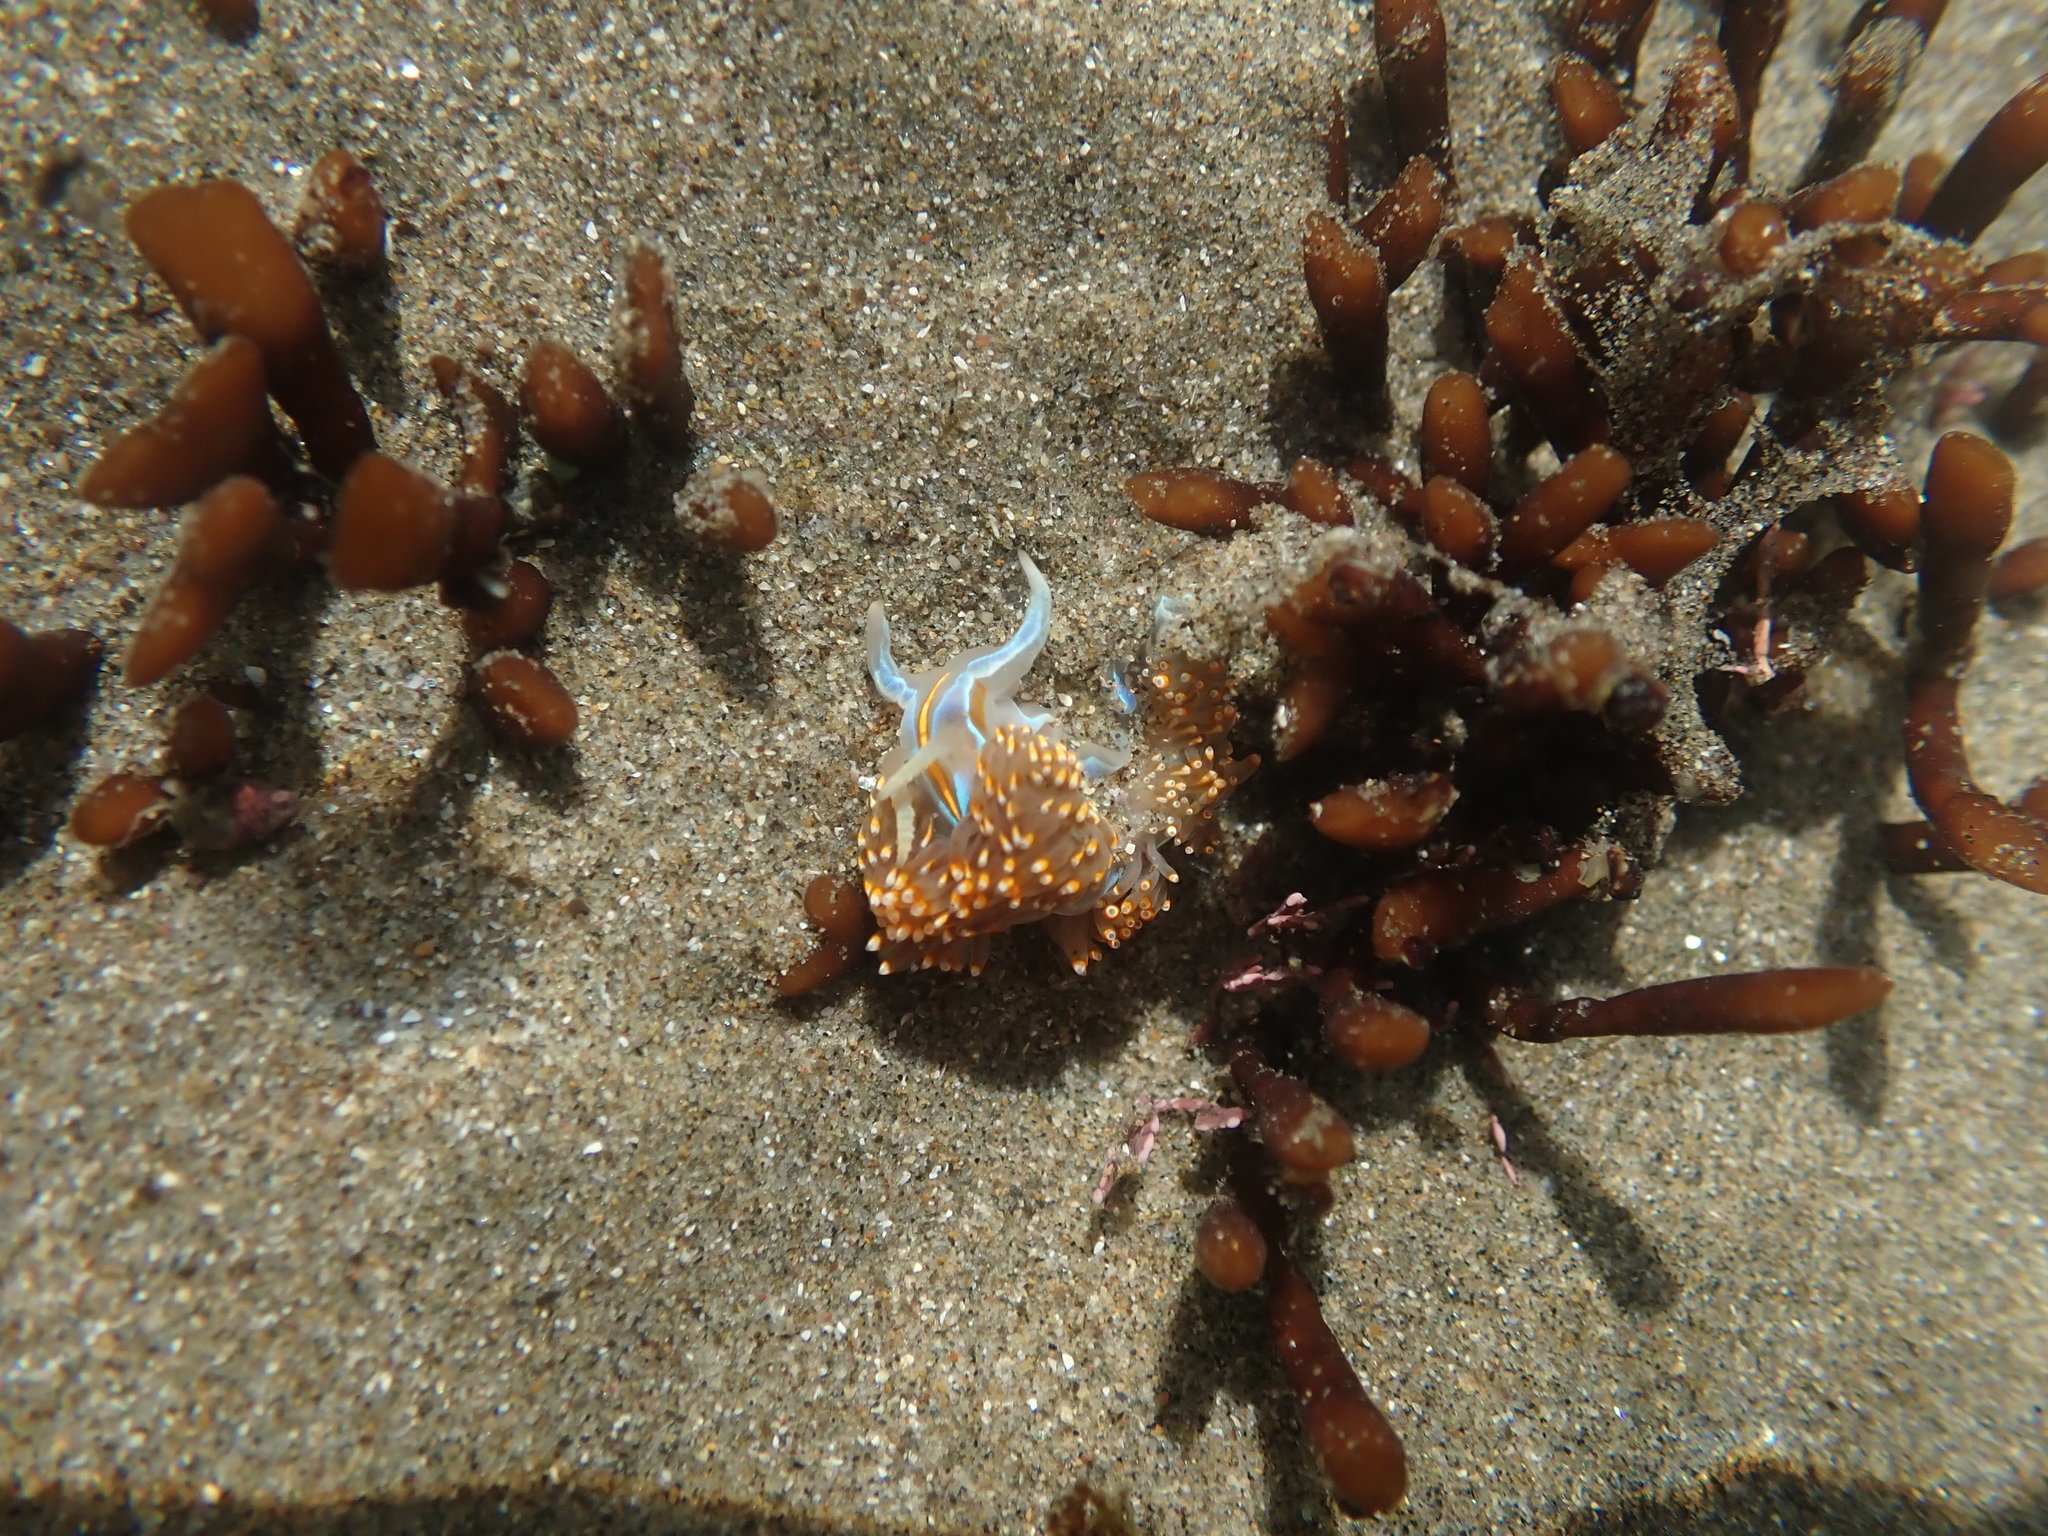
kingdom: Animalia
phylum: Mollusca
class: Gastropoda
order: Nudibranchia
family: Myrrhinidae
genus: Hermissenda
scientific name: Hermissenda opalescens
